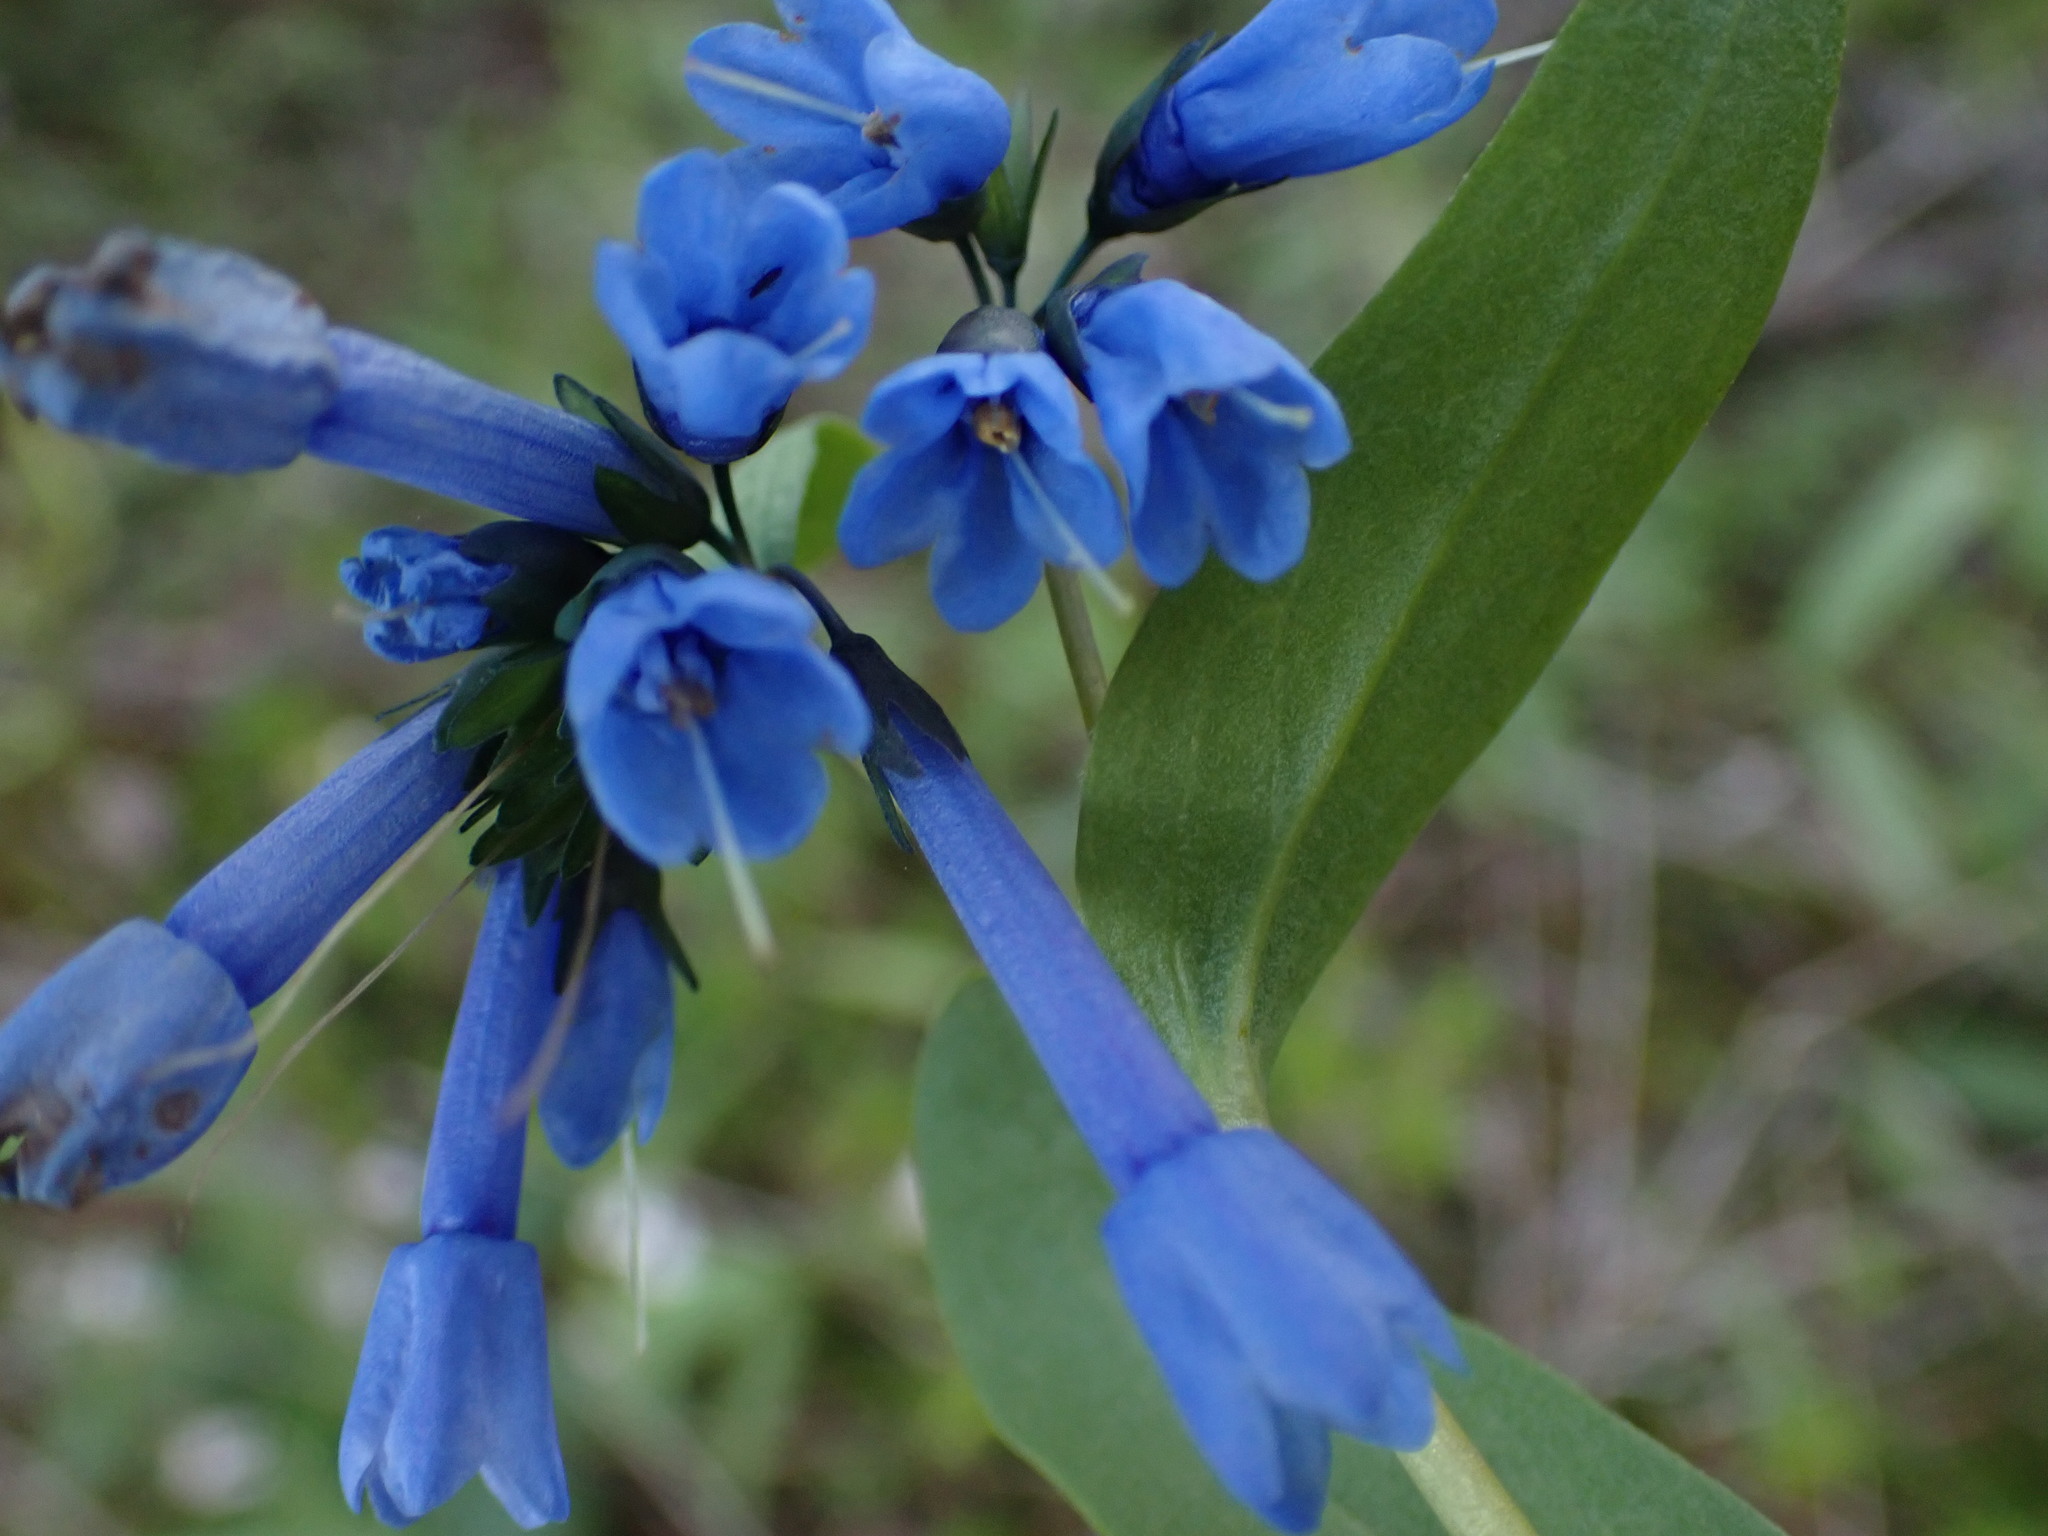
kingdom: Plantae
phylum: Tracheophyta
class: Magnoliopsida
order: Boraginales
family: Boraginaceae
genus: Mertensia
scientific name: Mertensia longiflora
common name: Large-flowered bluebells
